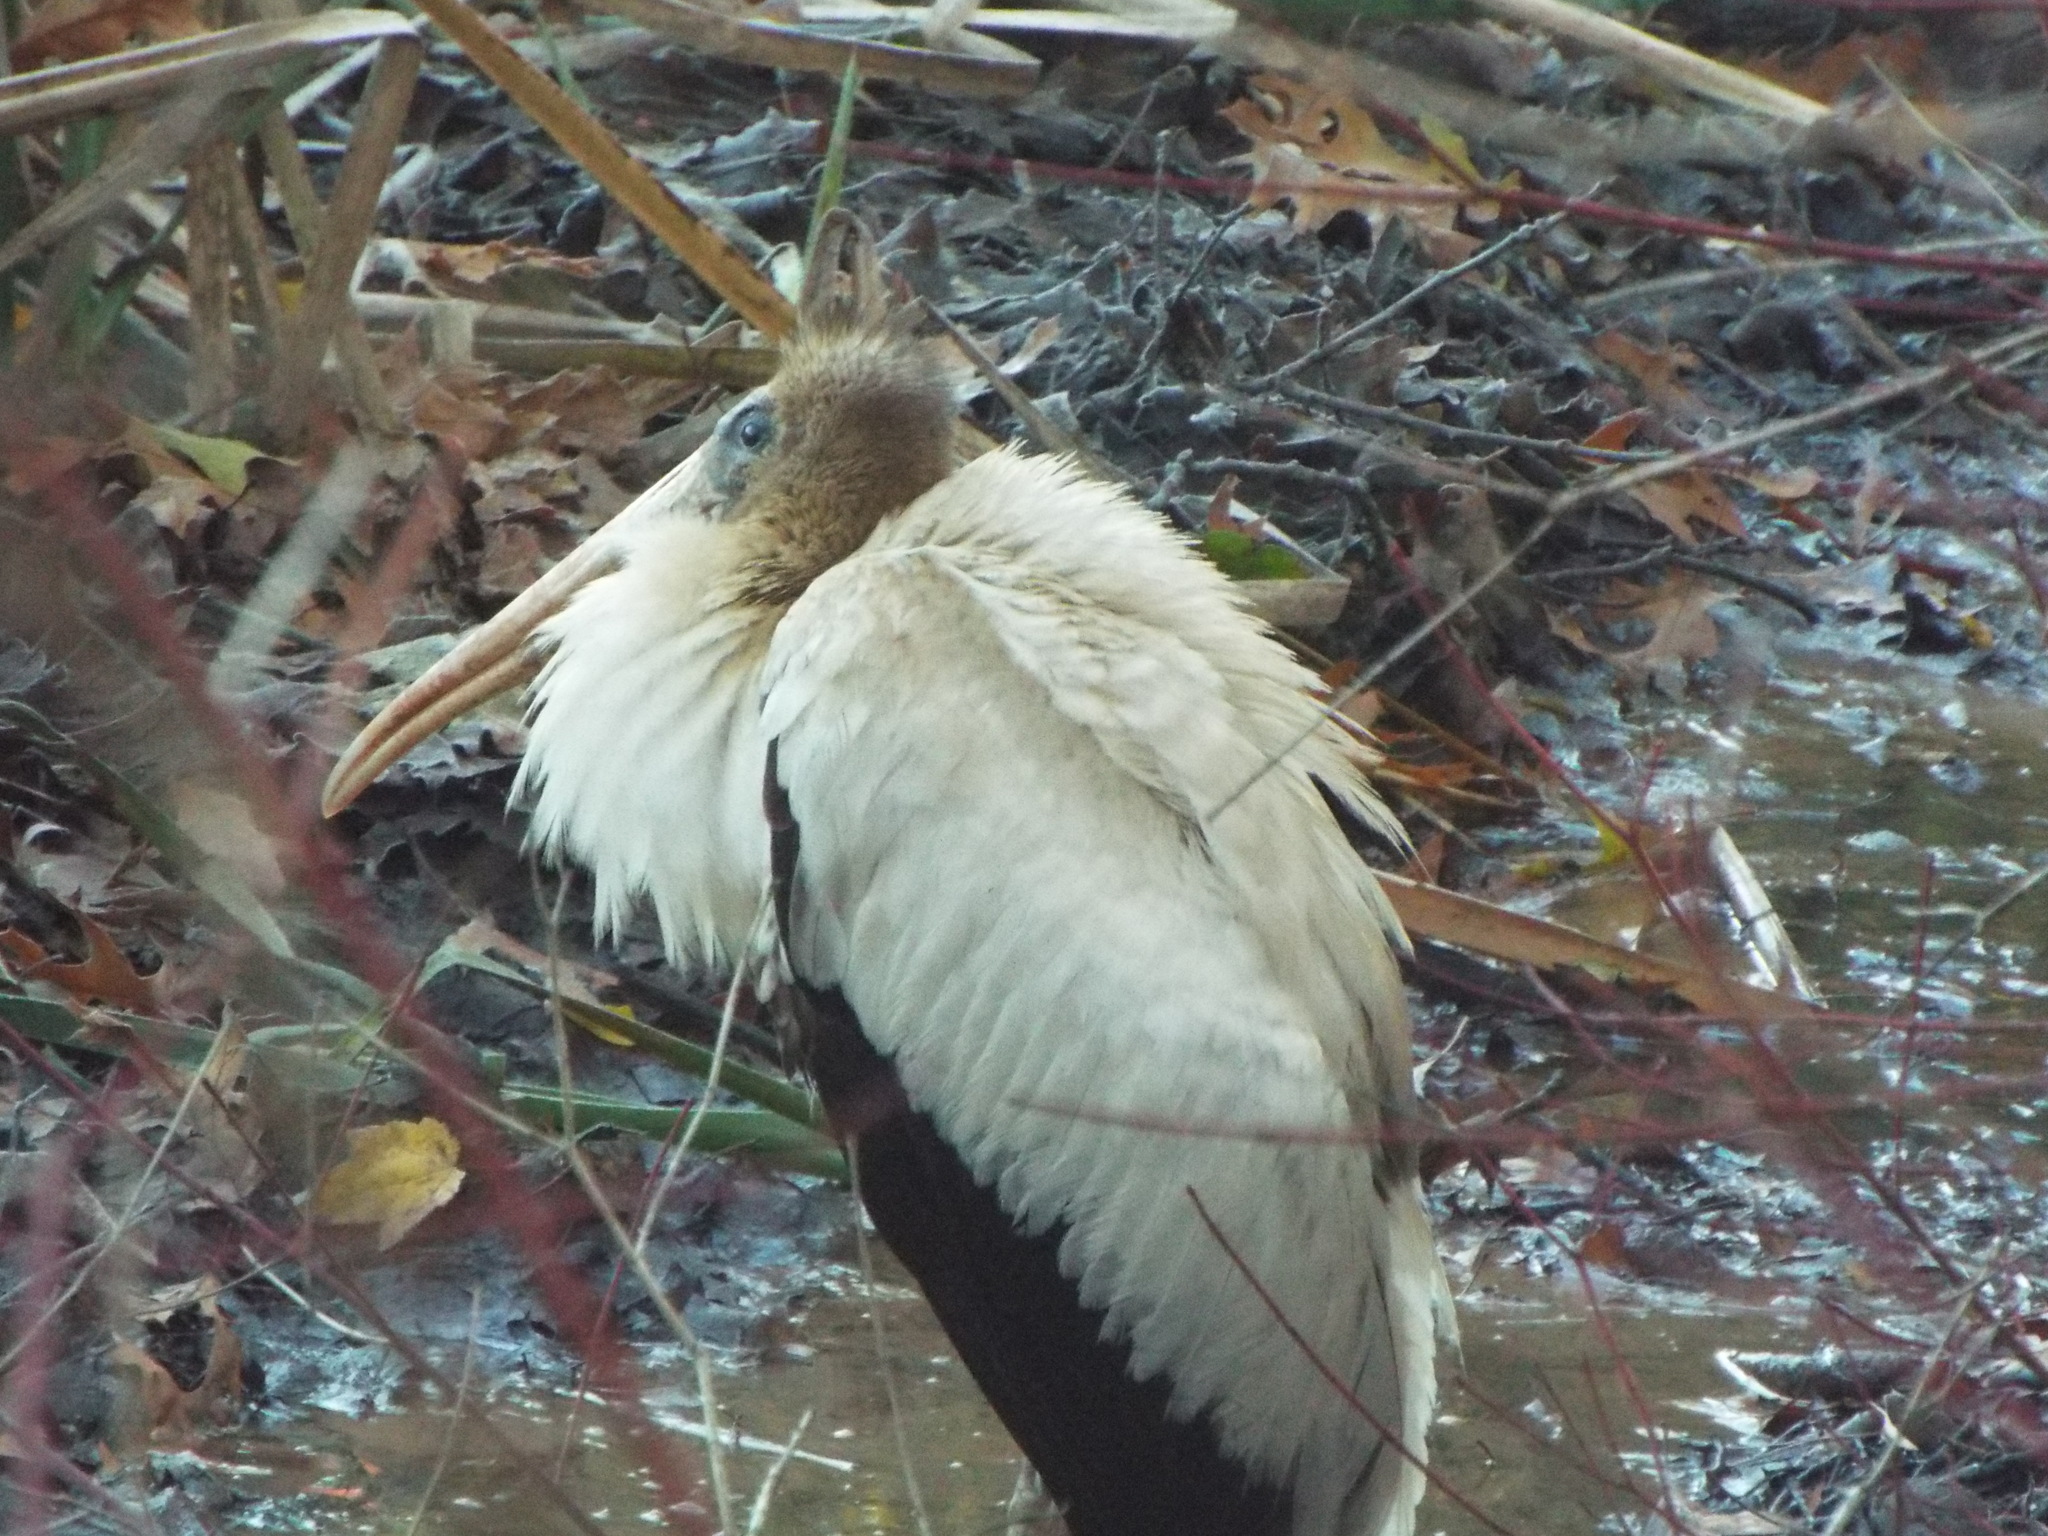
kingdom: Animalia
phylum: Chordata
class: Aves
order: Ciconiiformes
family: Ciconiidae
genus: Mycteria
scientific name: Mycteria americana
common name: Wood stork
